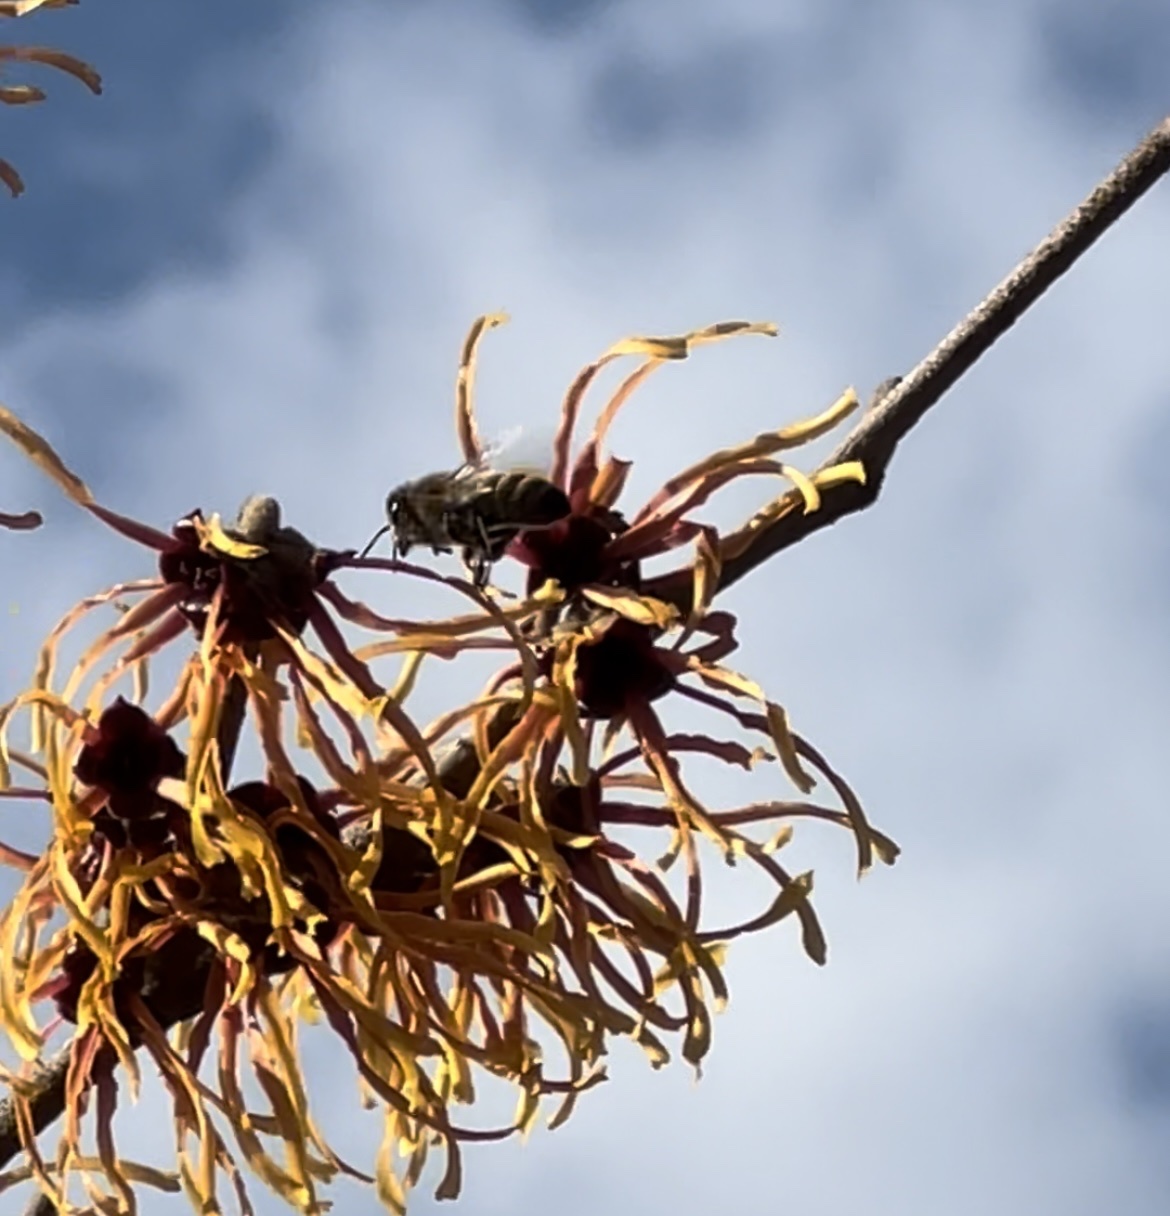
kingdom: Animalia
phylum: Arthropoda
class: Insecta
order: Hymenoptera
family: Apidae
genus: Apis
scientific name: Apis mellifera
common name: Honey bee
